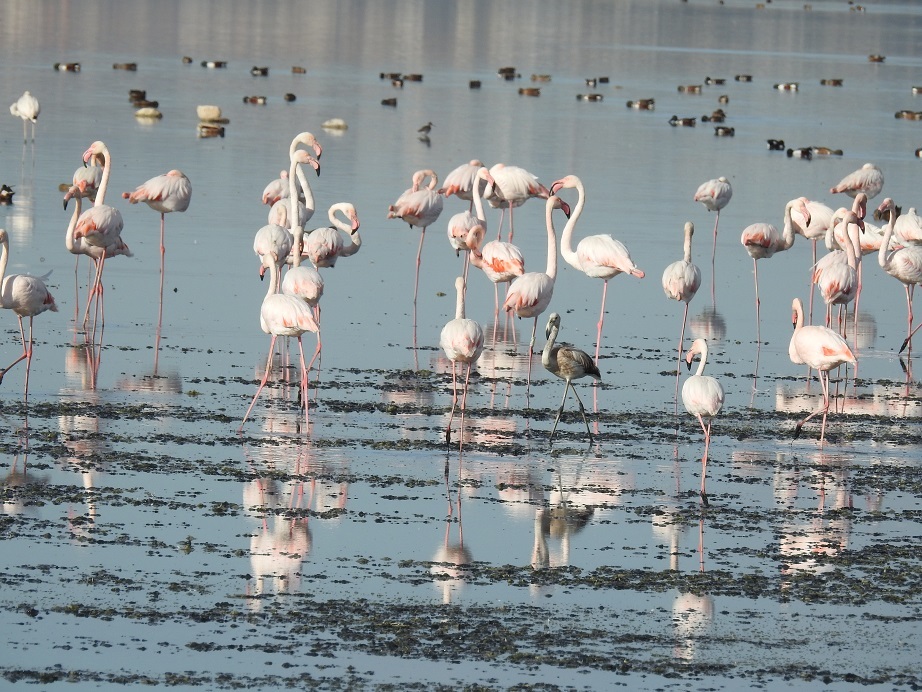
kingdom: Animalia
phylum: Chordata
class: Aves
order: Phoenicopteriformes
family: Phoenicopteridae
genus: Phoenicopterus
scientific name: Phoenicopterus roseus
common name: Greater flamingo
